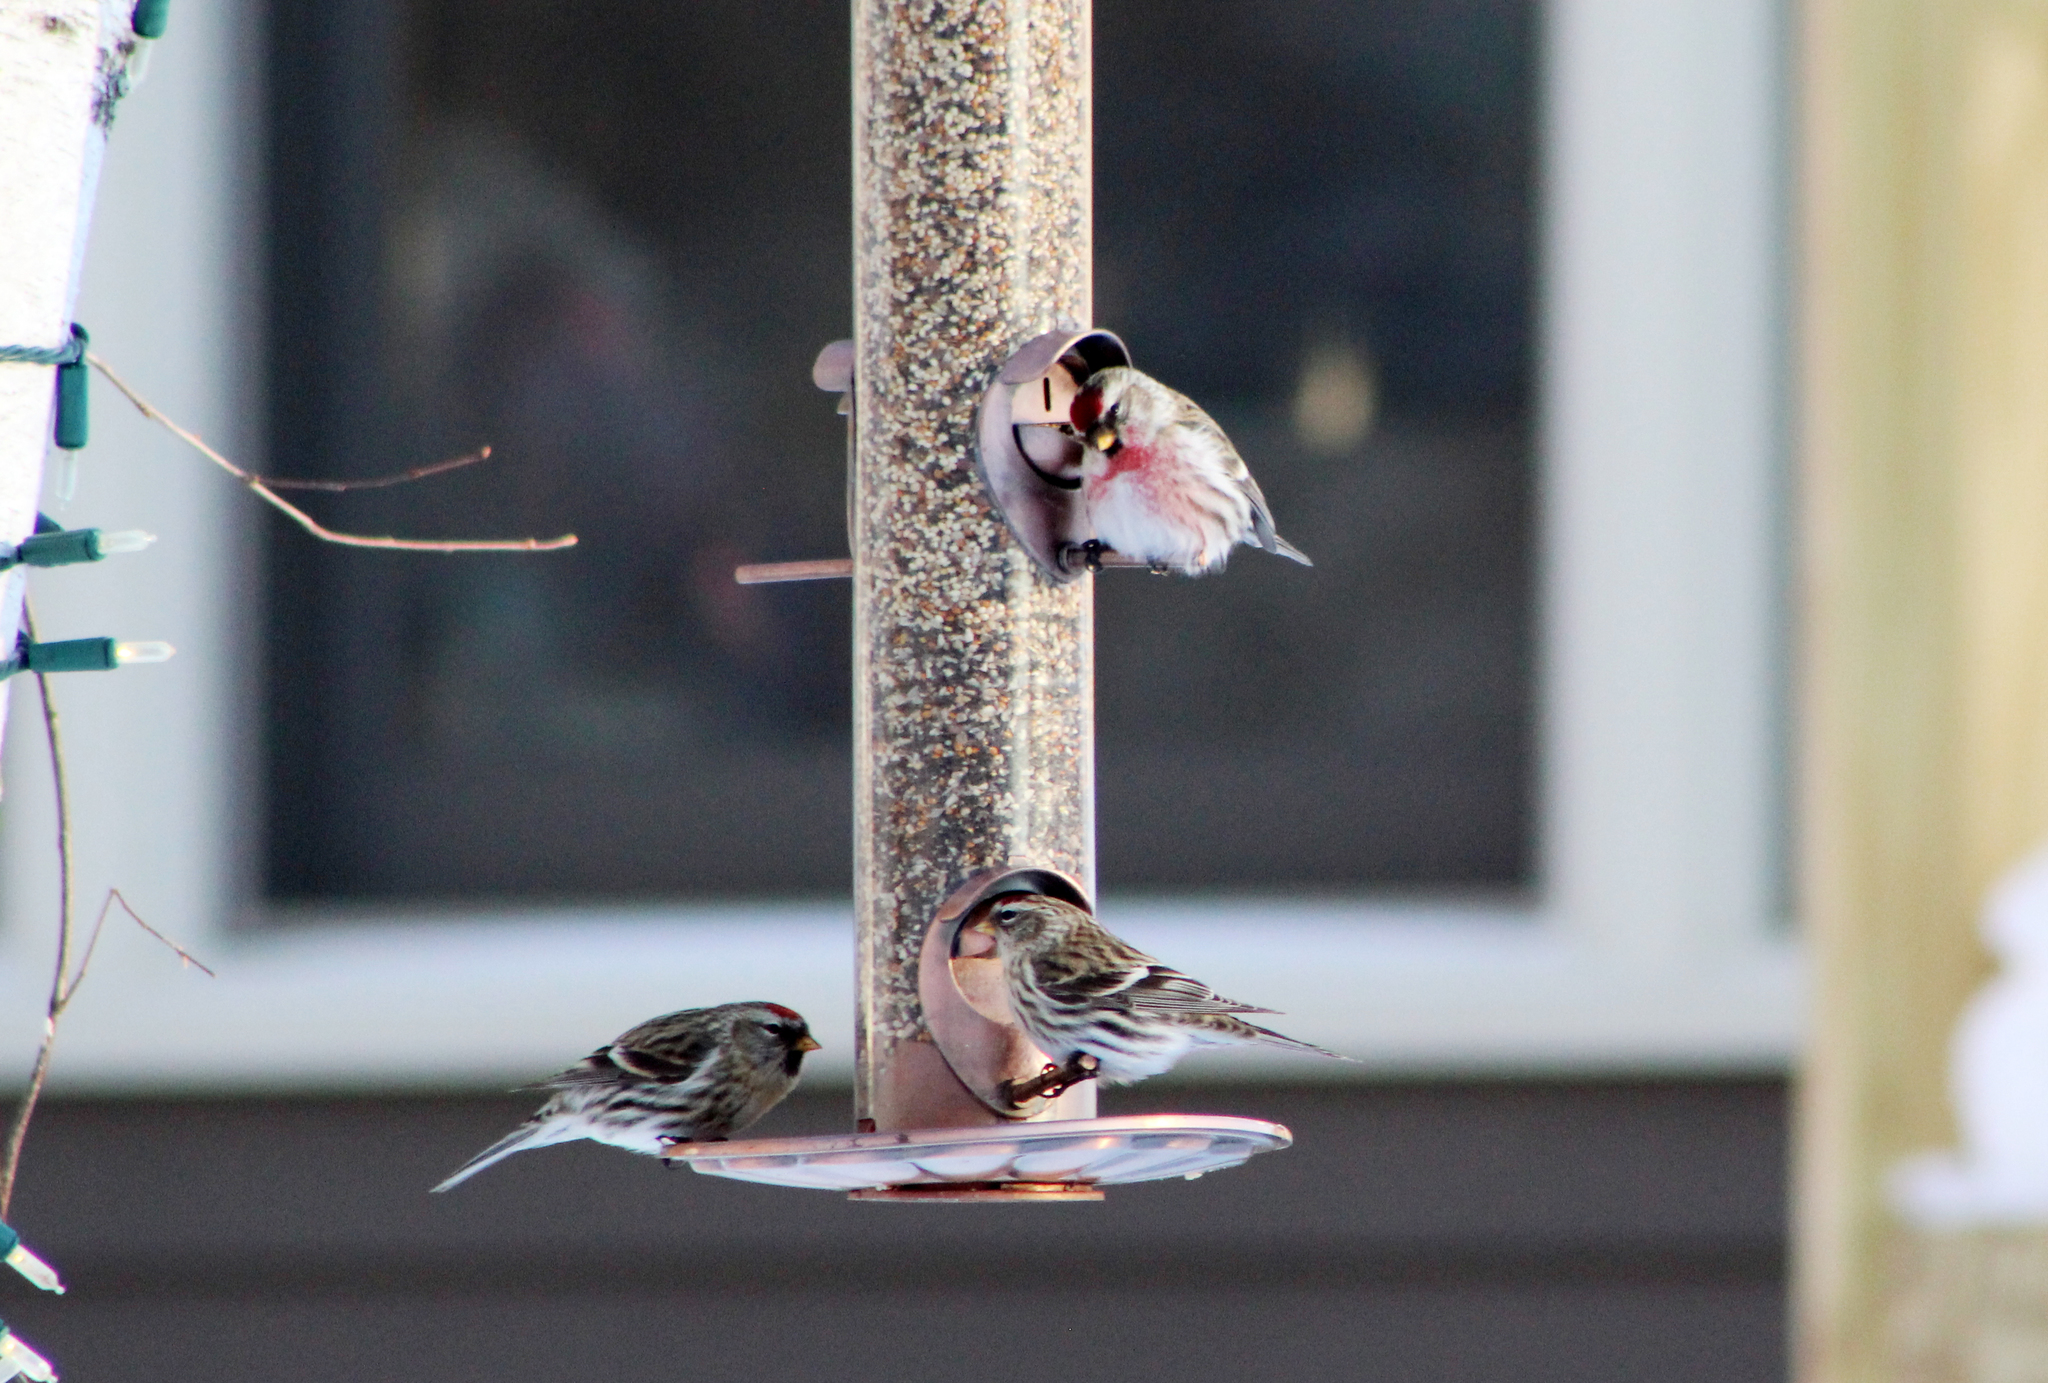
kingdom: Animalia
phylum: Chordata
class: Aves
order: Passeriformes
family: Fringillidae
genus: Acanthis
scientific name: Acanthis flammea
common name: Common redpoll
